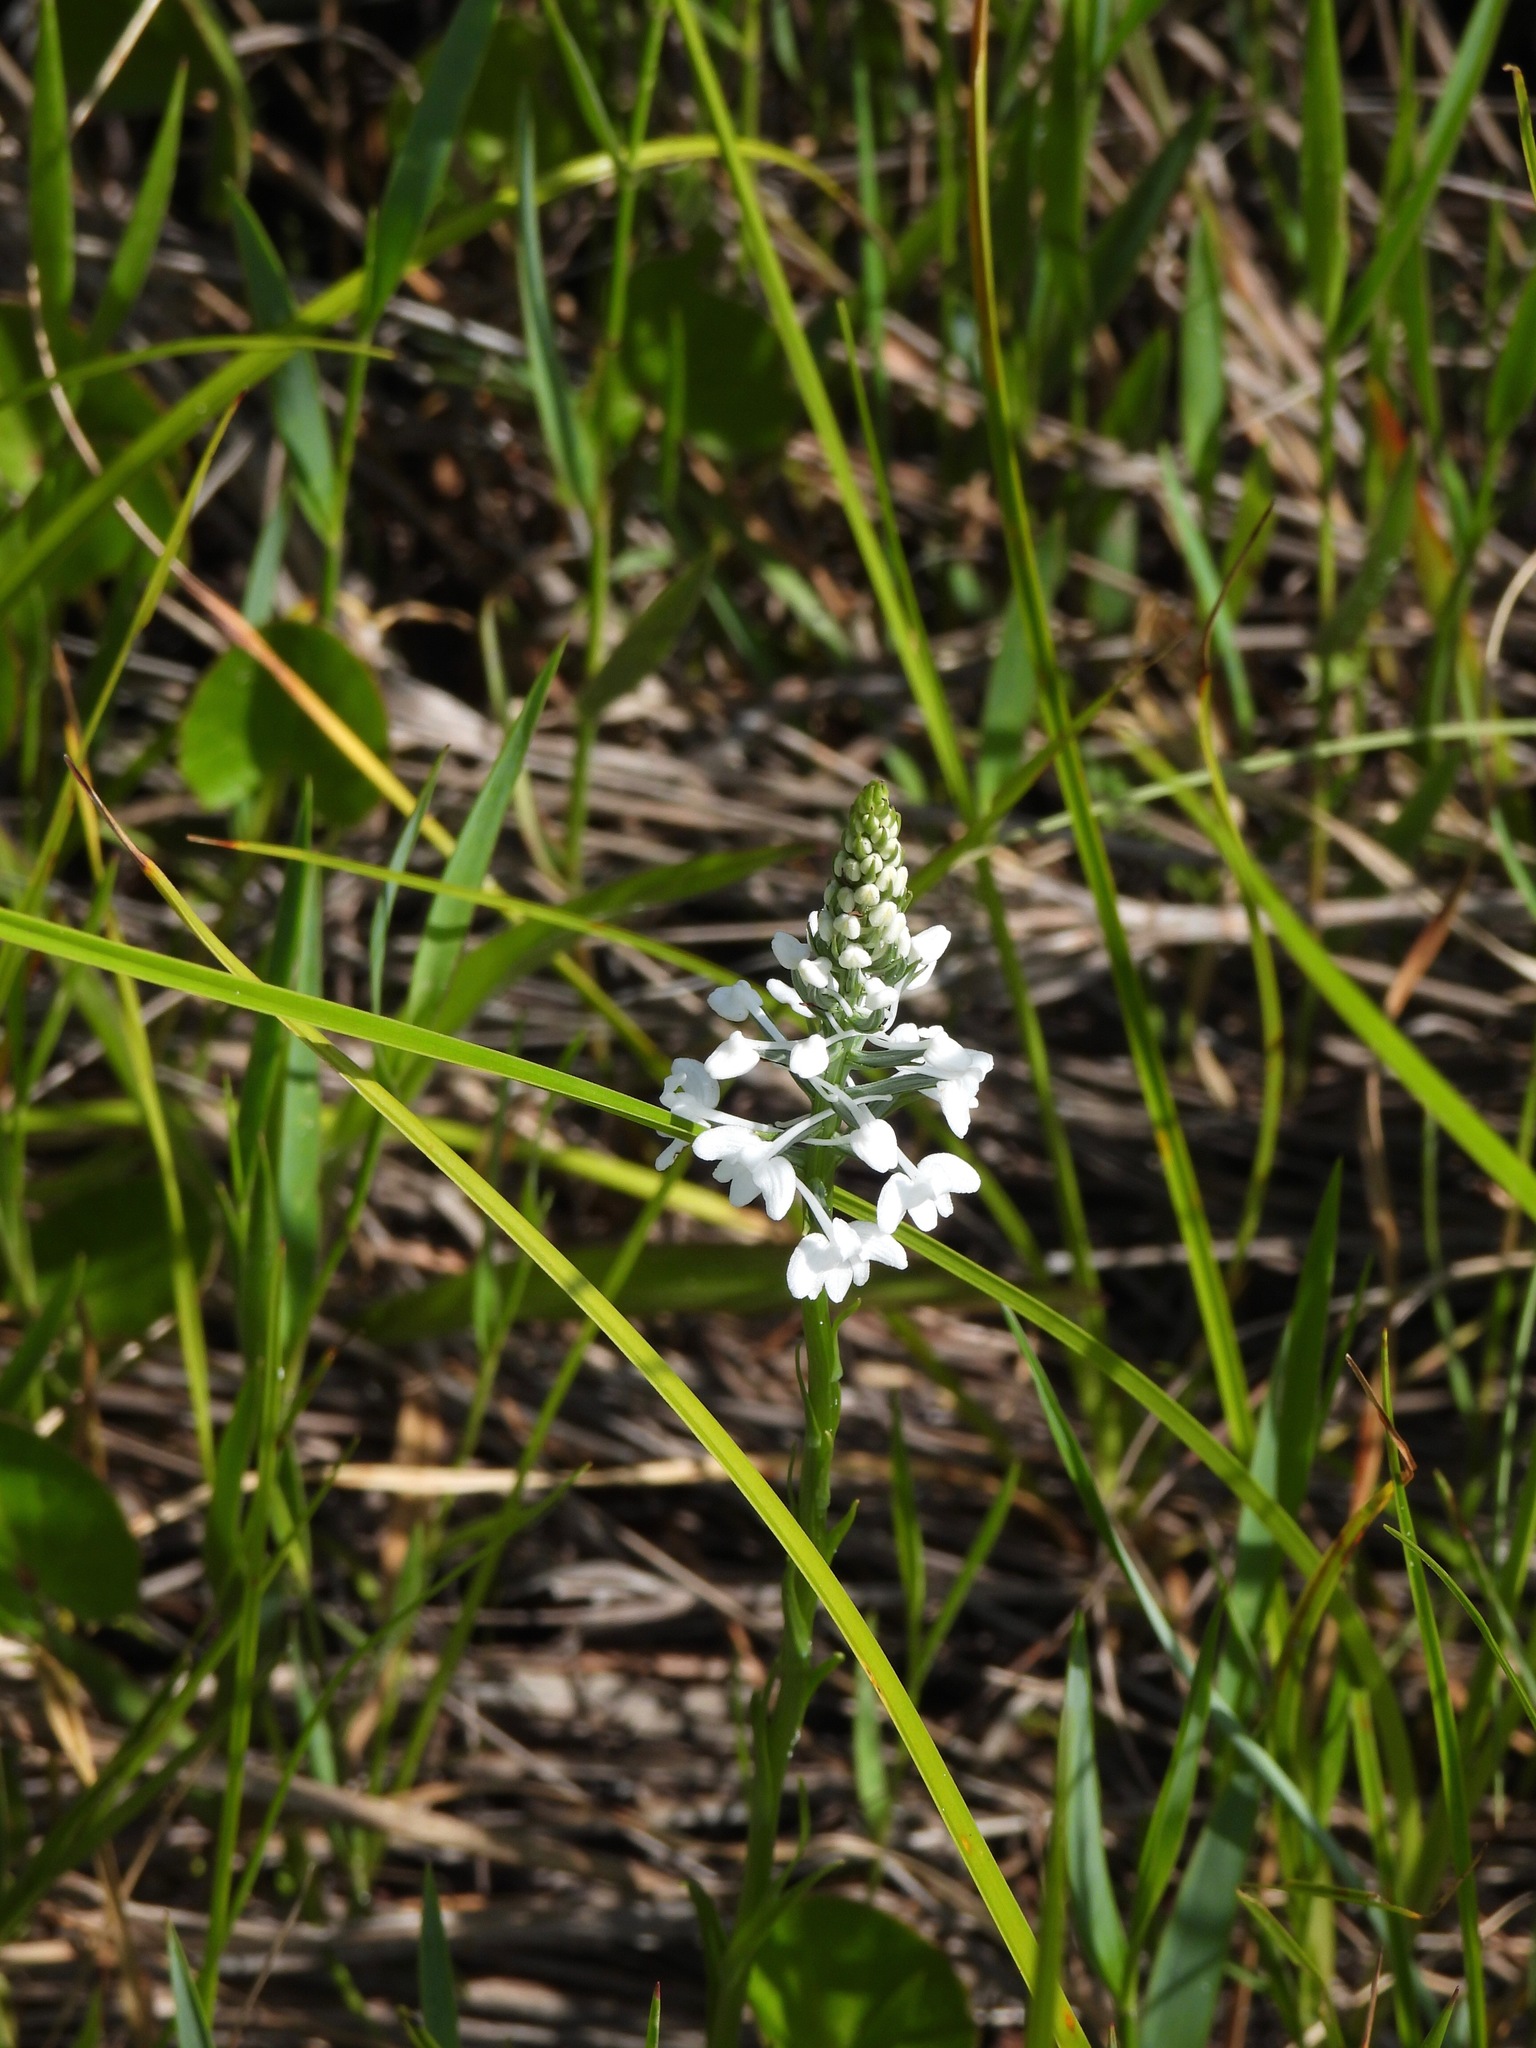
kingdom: Plantae
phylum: Tracheophyta
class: Liliopsida
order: Asparagales
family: Orchidaceae
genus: Platanthera
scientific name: Platanthera nivea
